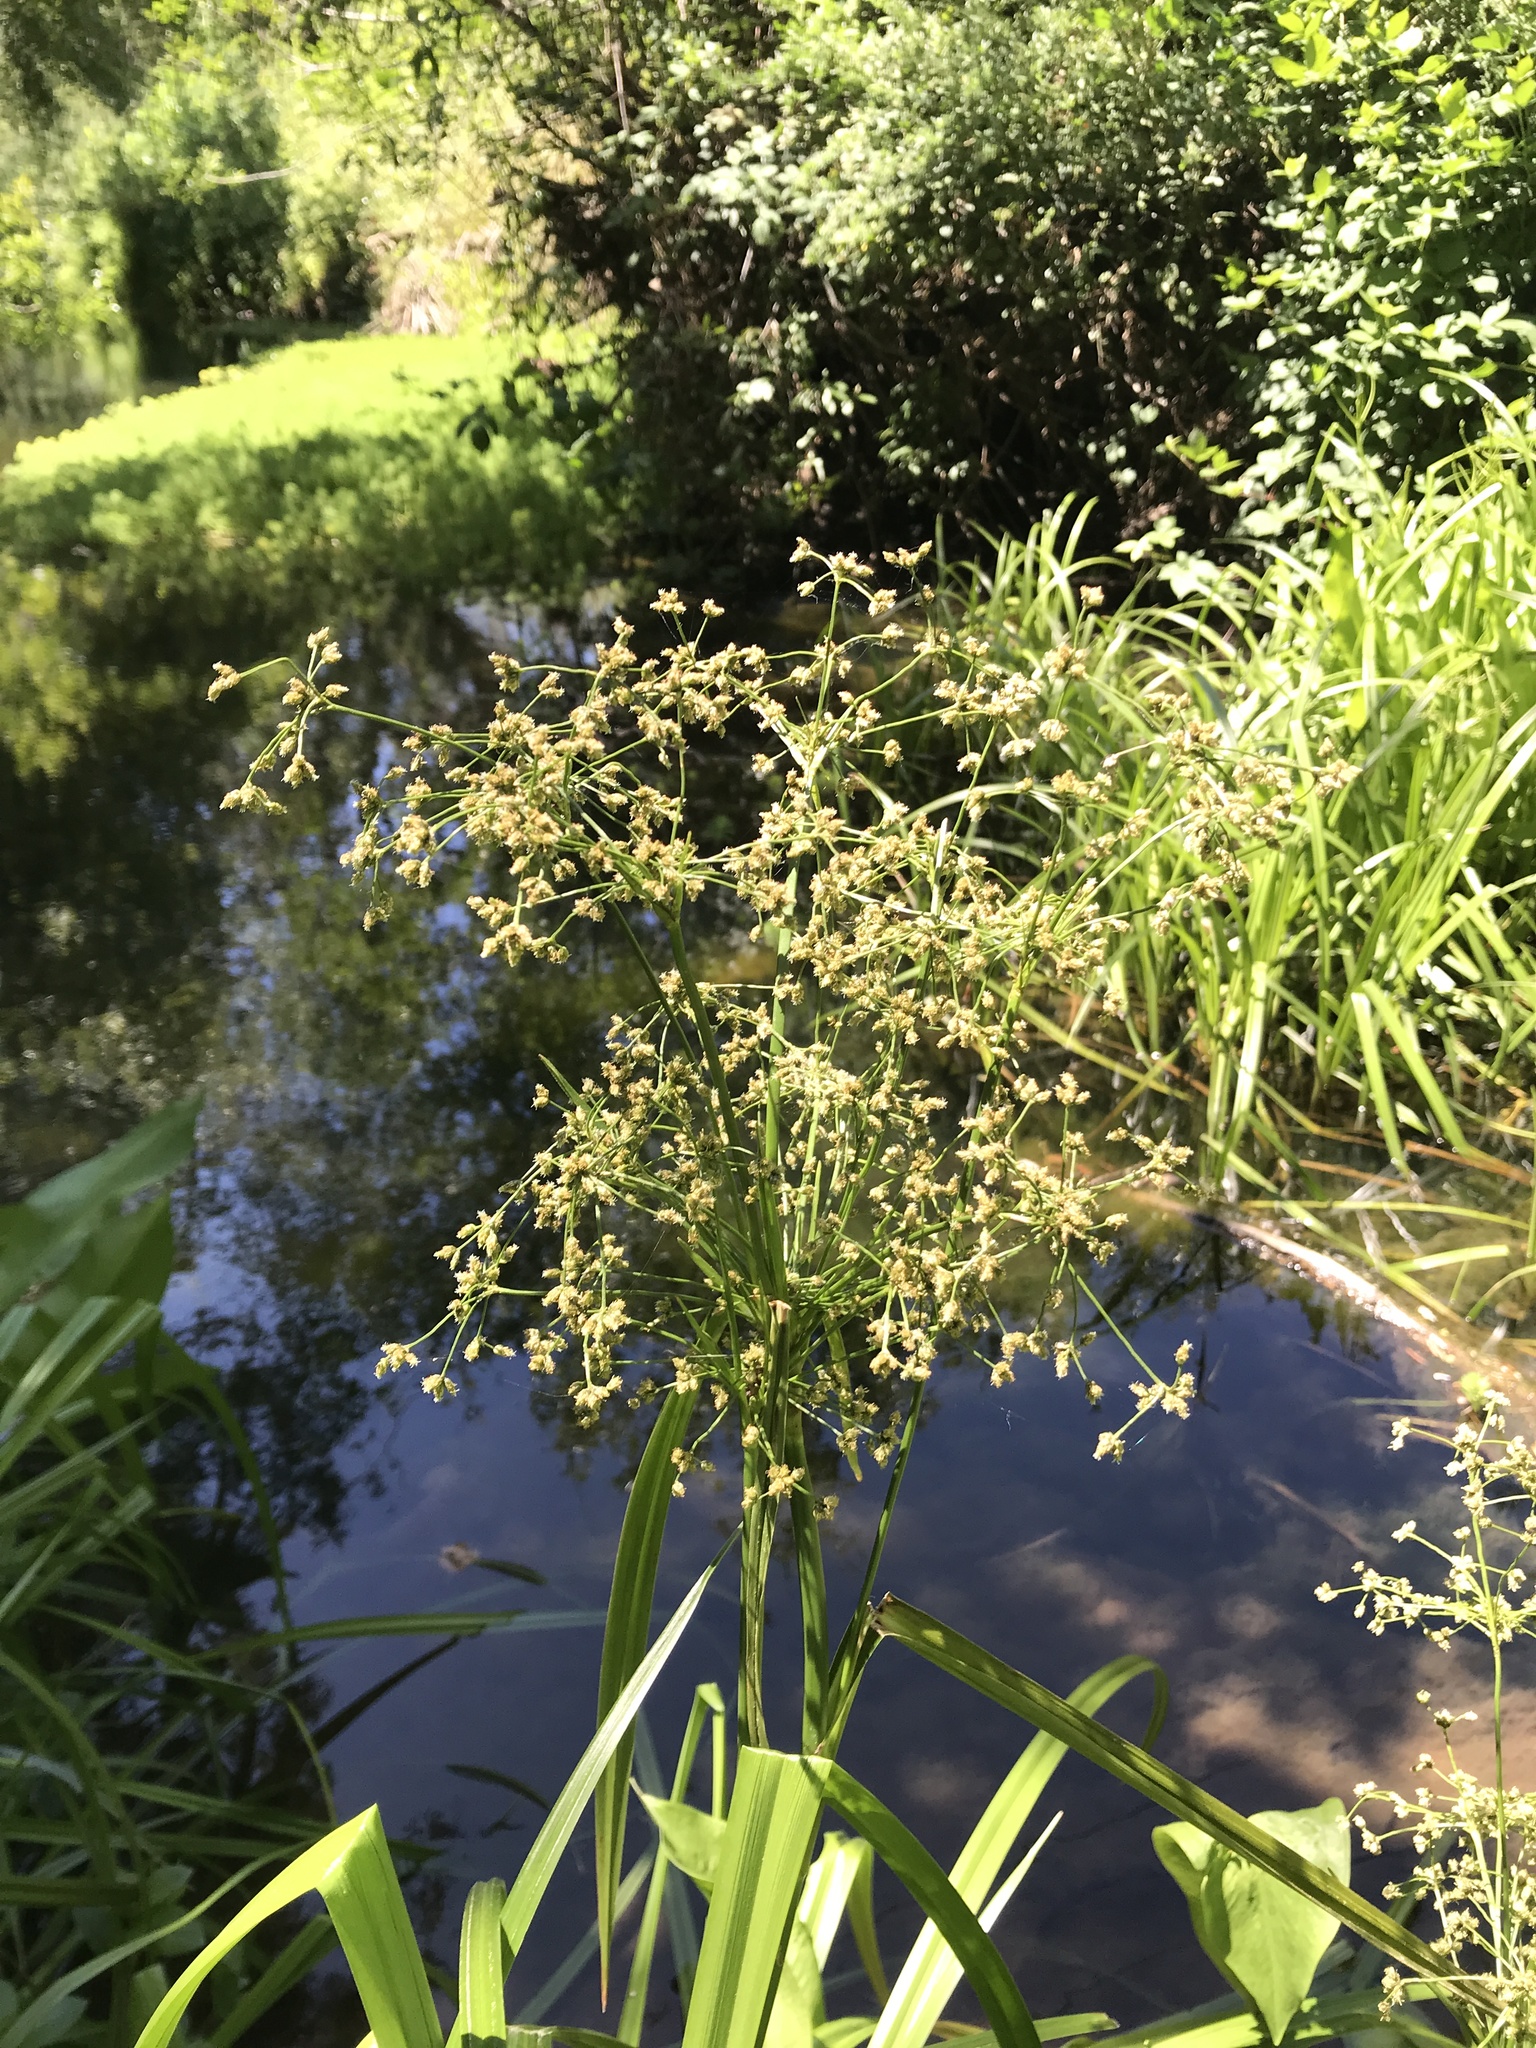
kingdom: Plantae
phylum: Tracheophyta
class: Liliopsida
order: Poales
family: Cyperaceae
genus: Scirpus
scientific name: Scirpus microcarpus
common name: Panicled bulrush
